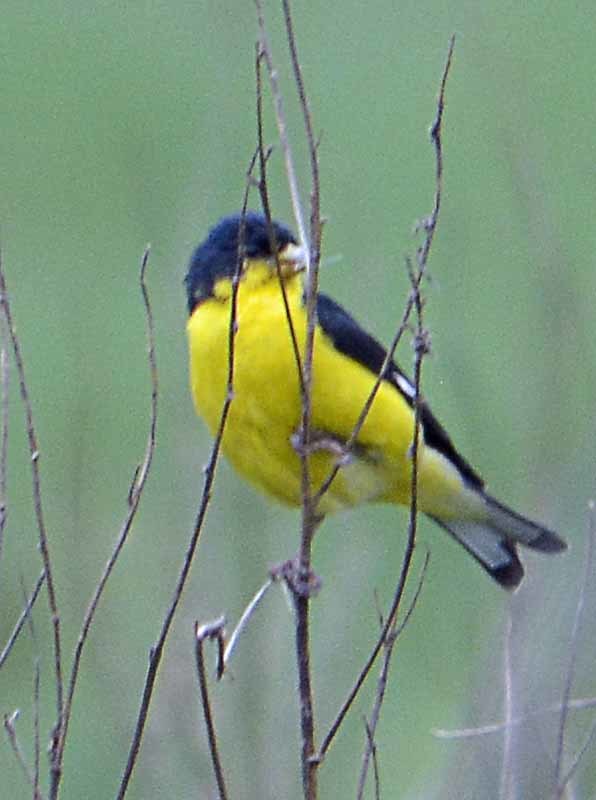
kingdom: Animalia
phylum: Chordata
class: Aves
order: Passeriformes
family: Fringillidae
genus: Spinus
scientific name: Spinus psaltria
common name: Lesser goldfinch
